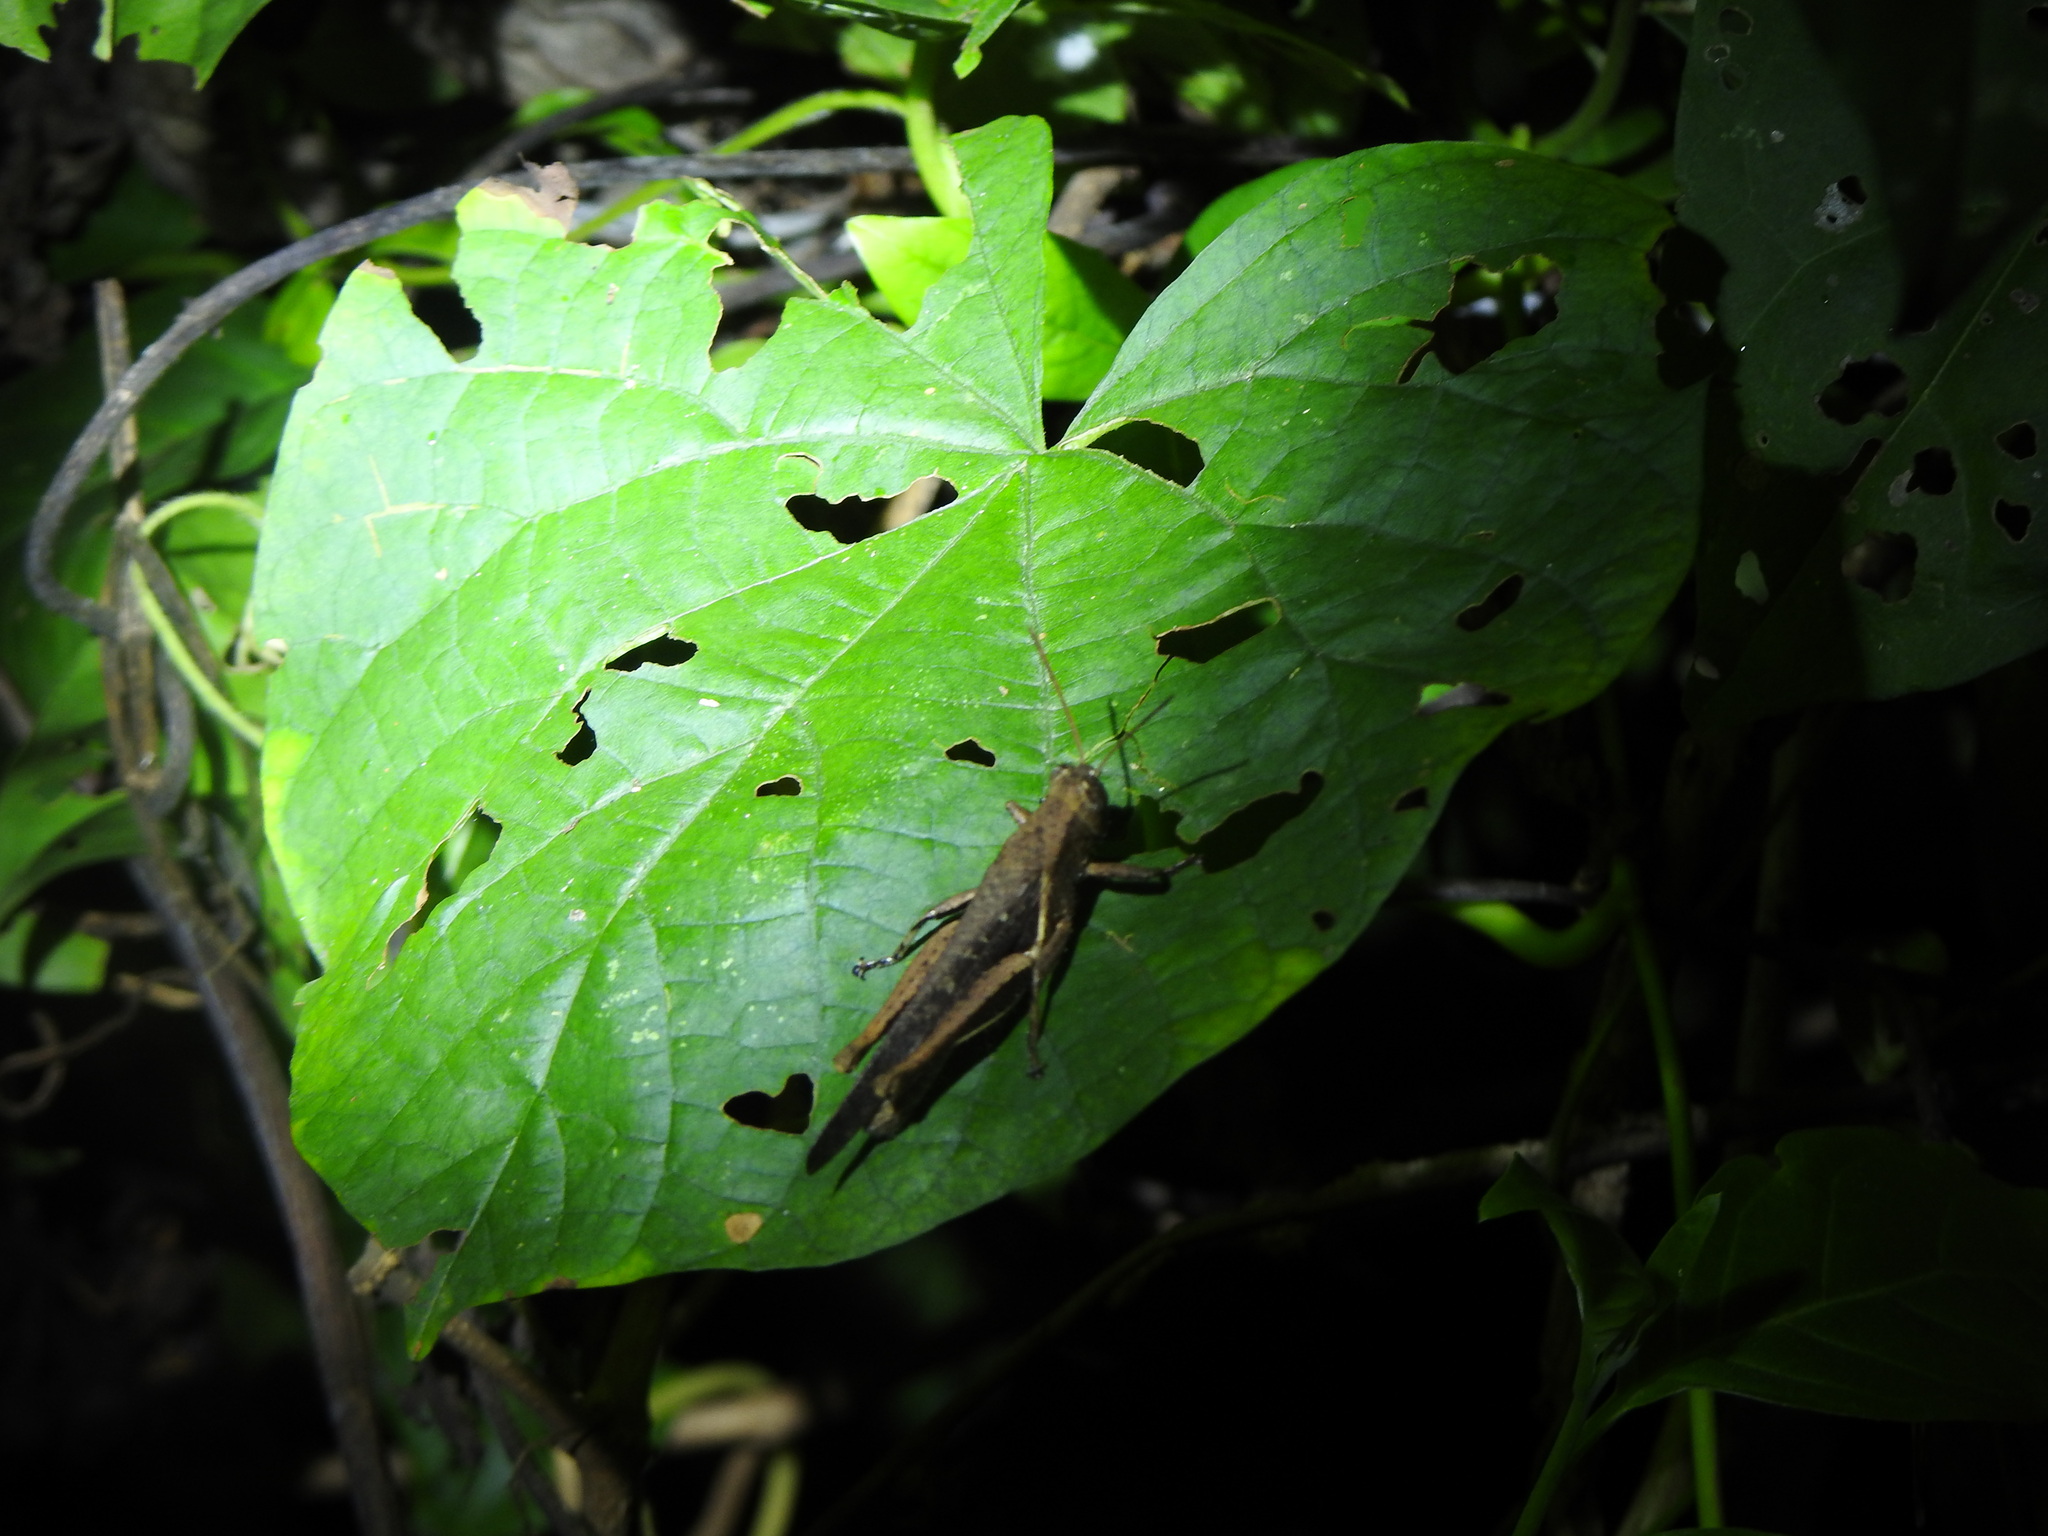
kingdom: Animalia
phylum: Arthropoda
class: Insecta
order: Orthoptera
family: Acrididae
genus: Abracris
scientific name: Abracris flavolineata
